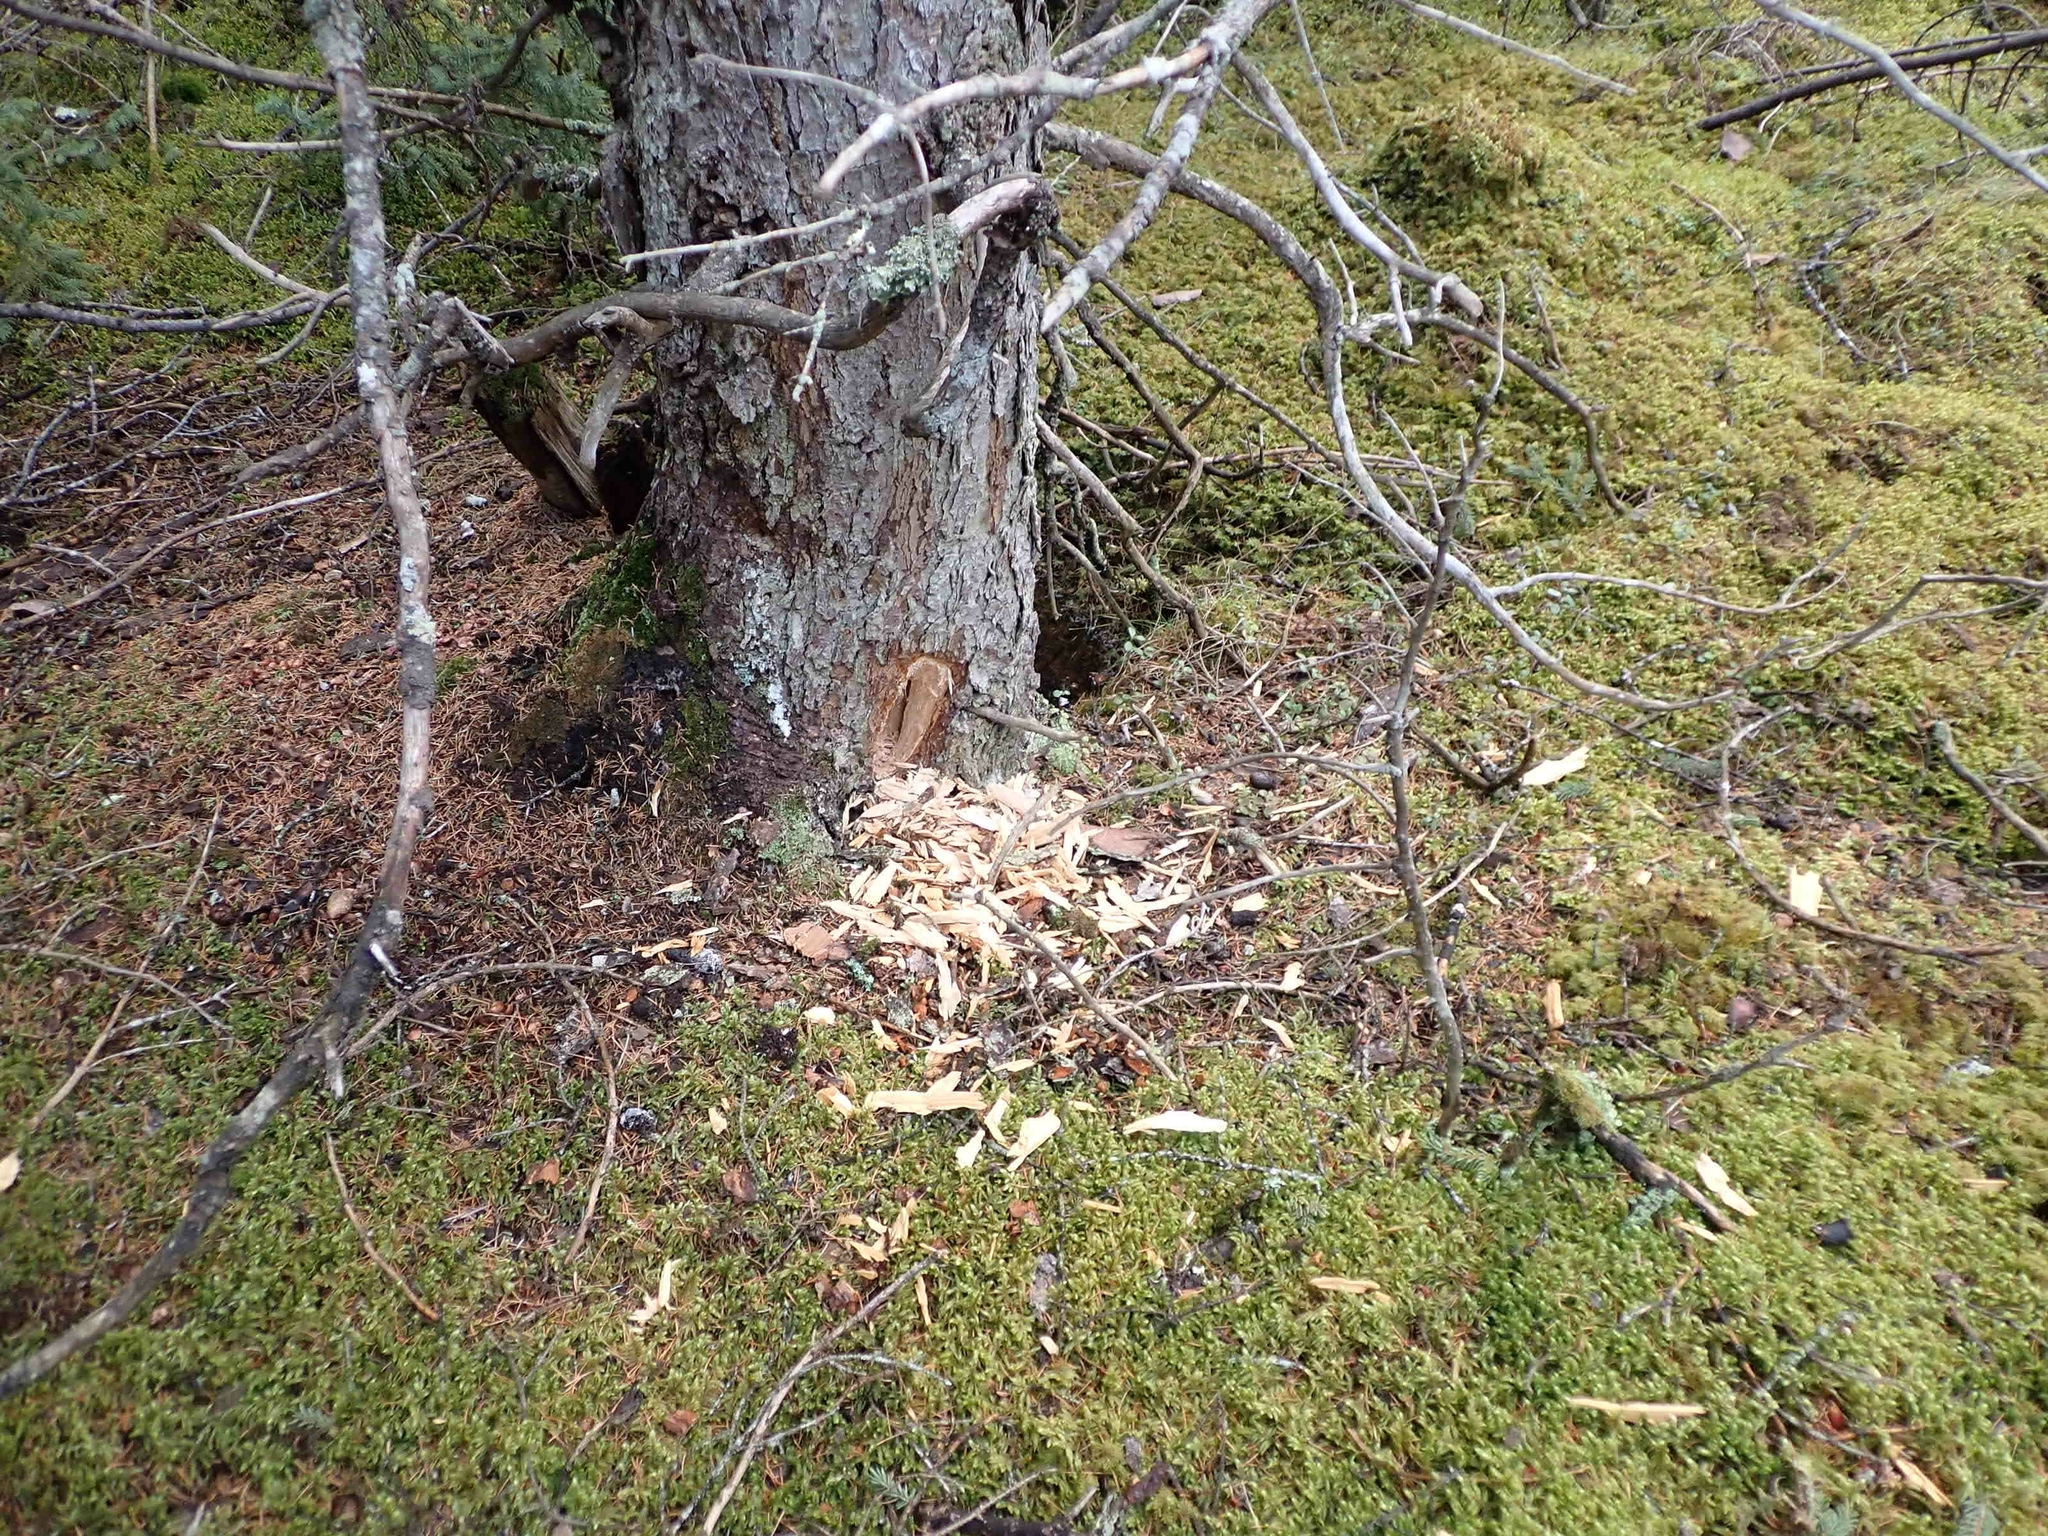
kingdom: Animalia
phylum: Chordata
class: Aves
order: Piciformes
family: Picidae
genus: Dryocopus
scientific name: Dryocopus pileatus
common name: Pileated woodpecker
